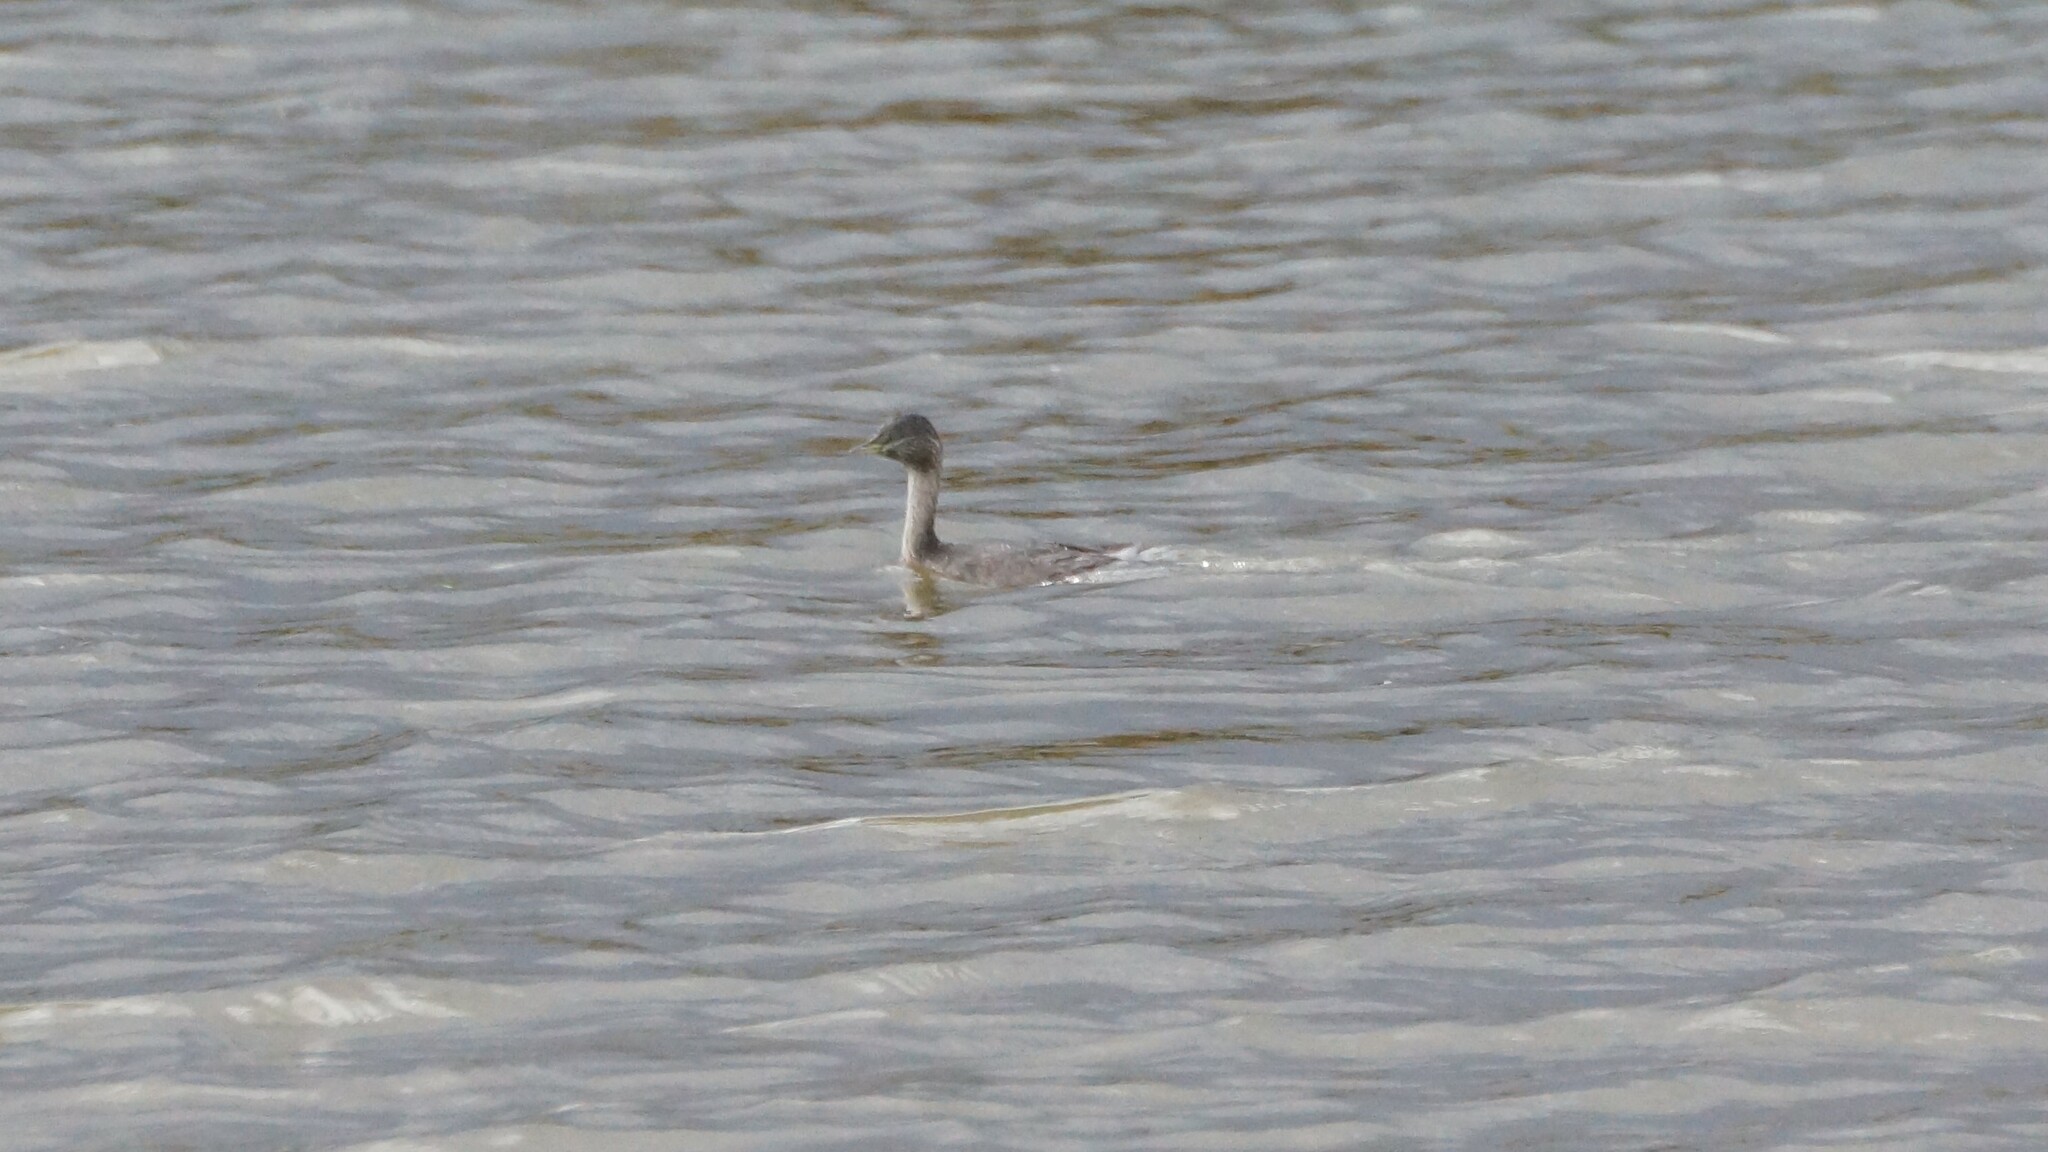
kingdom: Animalia
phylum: Chordata
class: Aves
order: Podicipediformes
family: Podicipedidae
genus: Poliocephalus
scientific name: Poliocephalus poliocephalus
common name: Hoary-headed grebe
